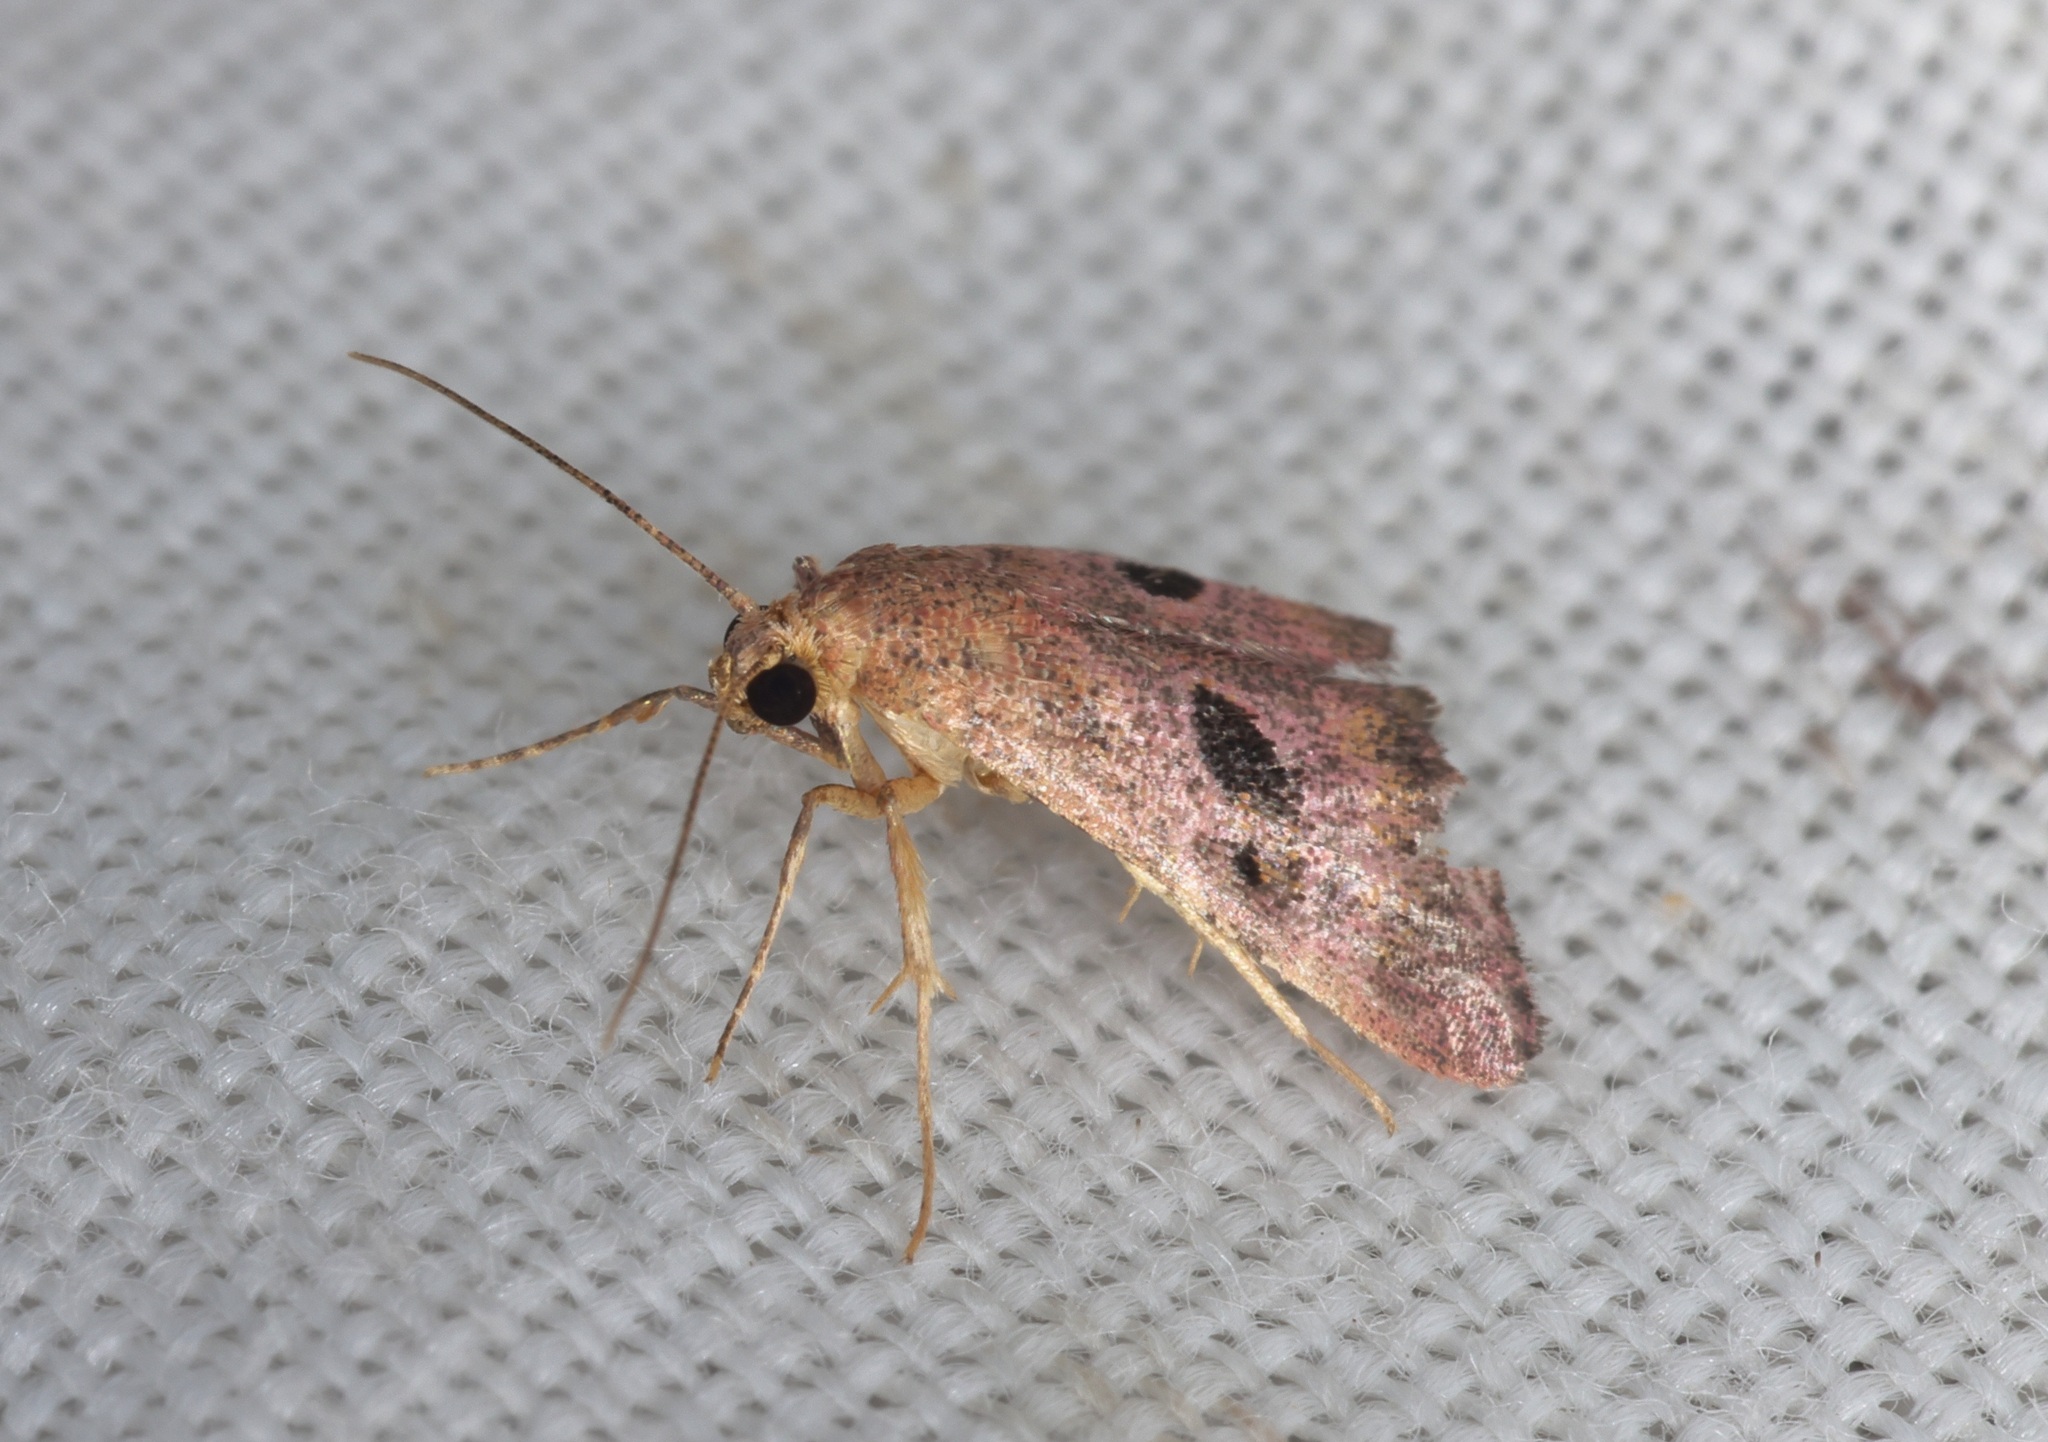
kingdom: Animalia
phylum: Arthropoda
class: Insecta
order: Lepidoptera
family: Pyralidae
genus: Perisseretma
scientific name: Perisseretma endotrichalis
